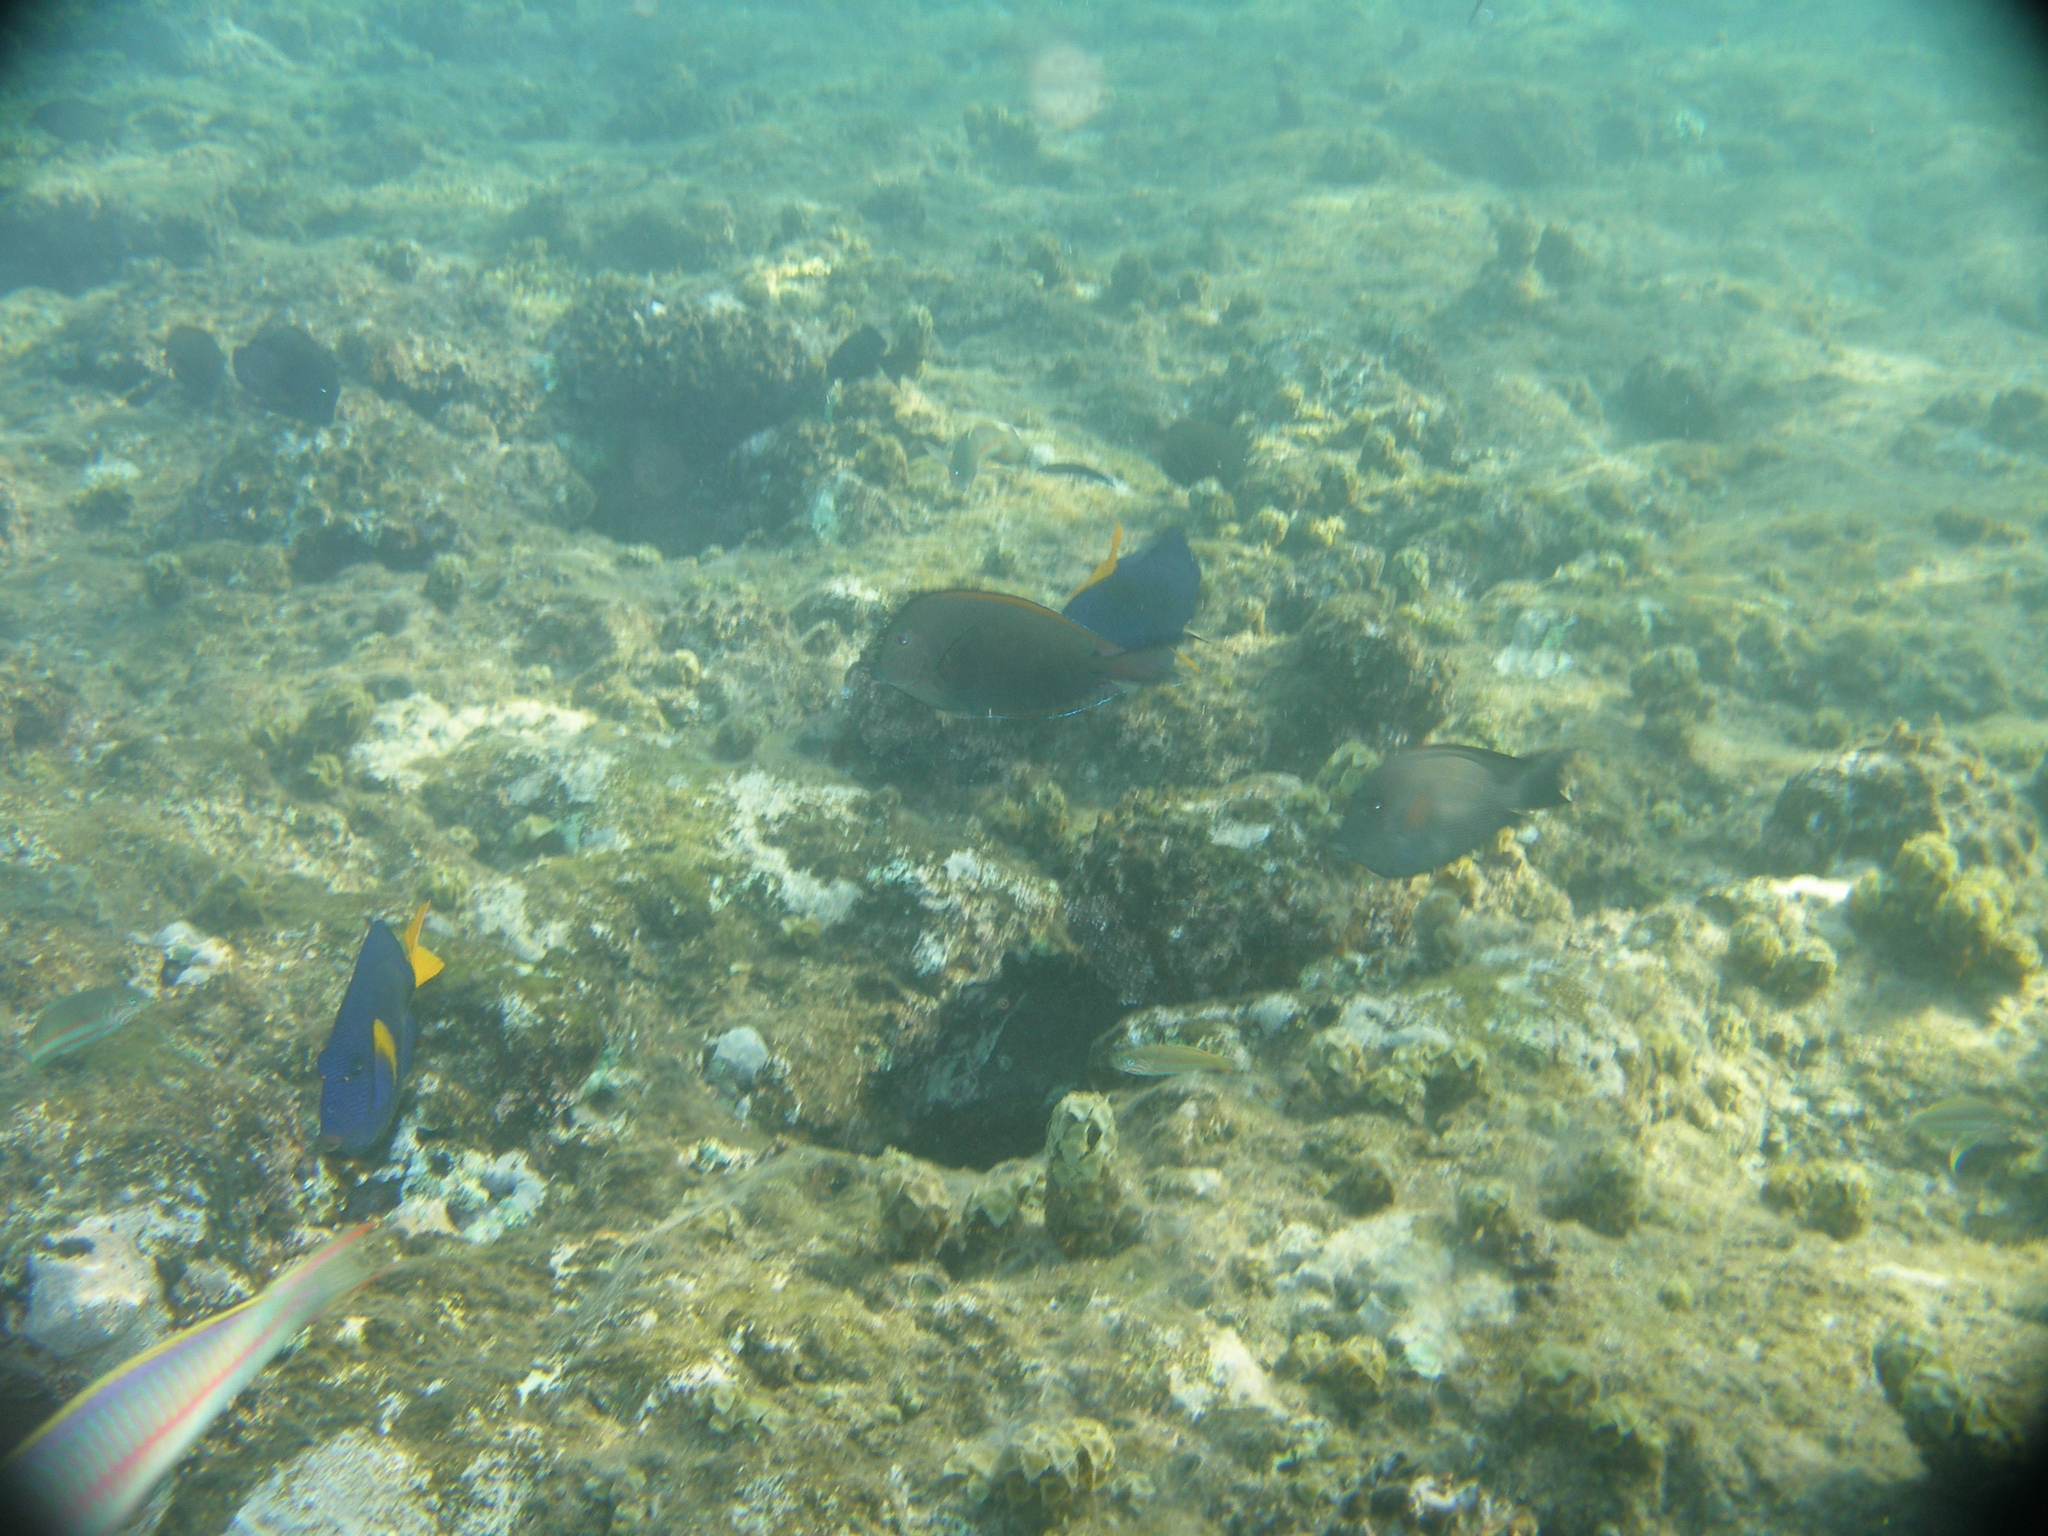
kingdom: Animalia
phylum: Chordata
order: Perciformes
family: Acanthuridae
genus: Acanthurus
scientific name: Acanthurus nigrofuscus
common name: Blackspot surgeonfish
